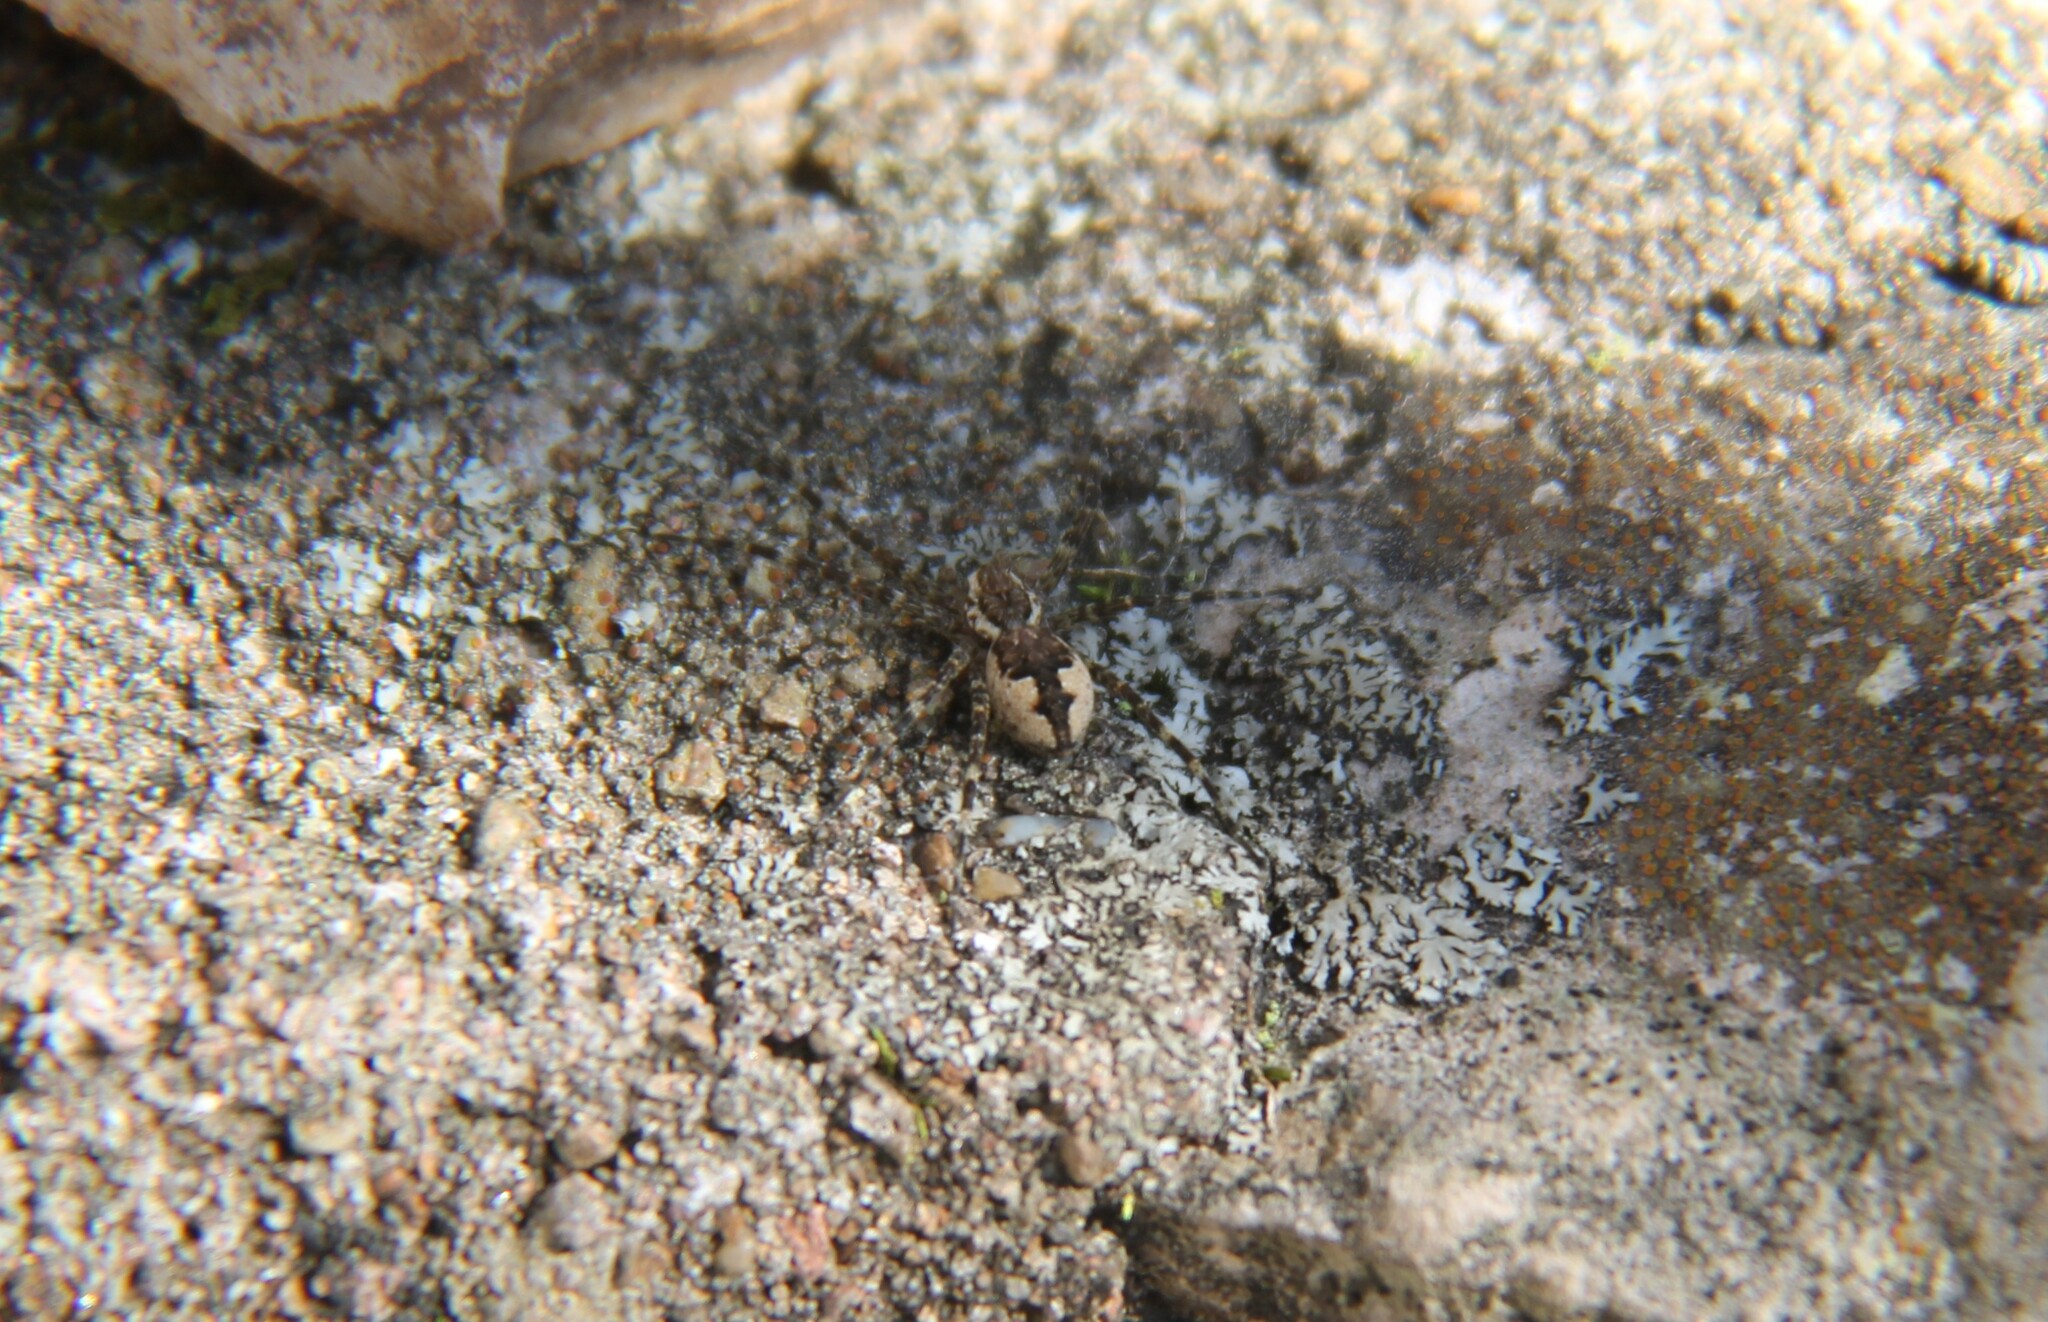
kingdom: Animalia
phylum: Arthropoda
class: Arachnida
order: Araneae
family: Pisauridae
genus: Dolomedes
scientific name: Dolomedes tenebrosus
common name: Dark fishing spider
